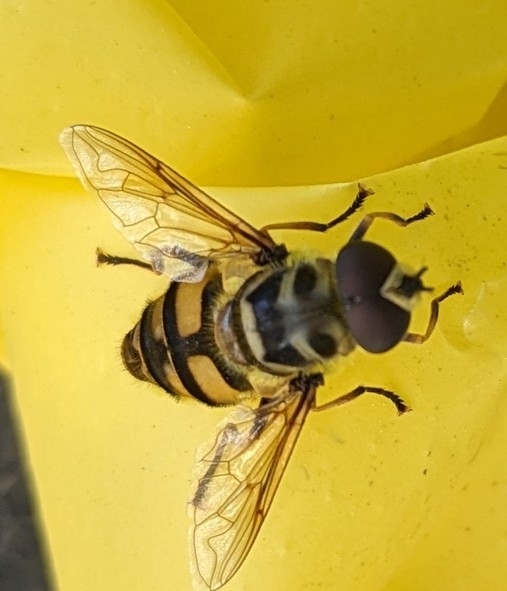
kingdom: Animalia
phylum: Arthropoda
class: Insecta
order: Diptera
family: Syrphidae
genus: Myathropa
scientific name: Myathropa florea
